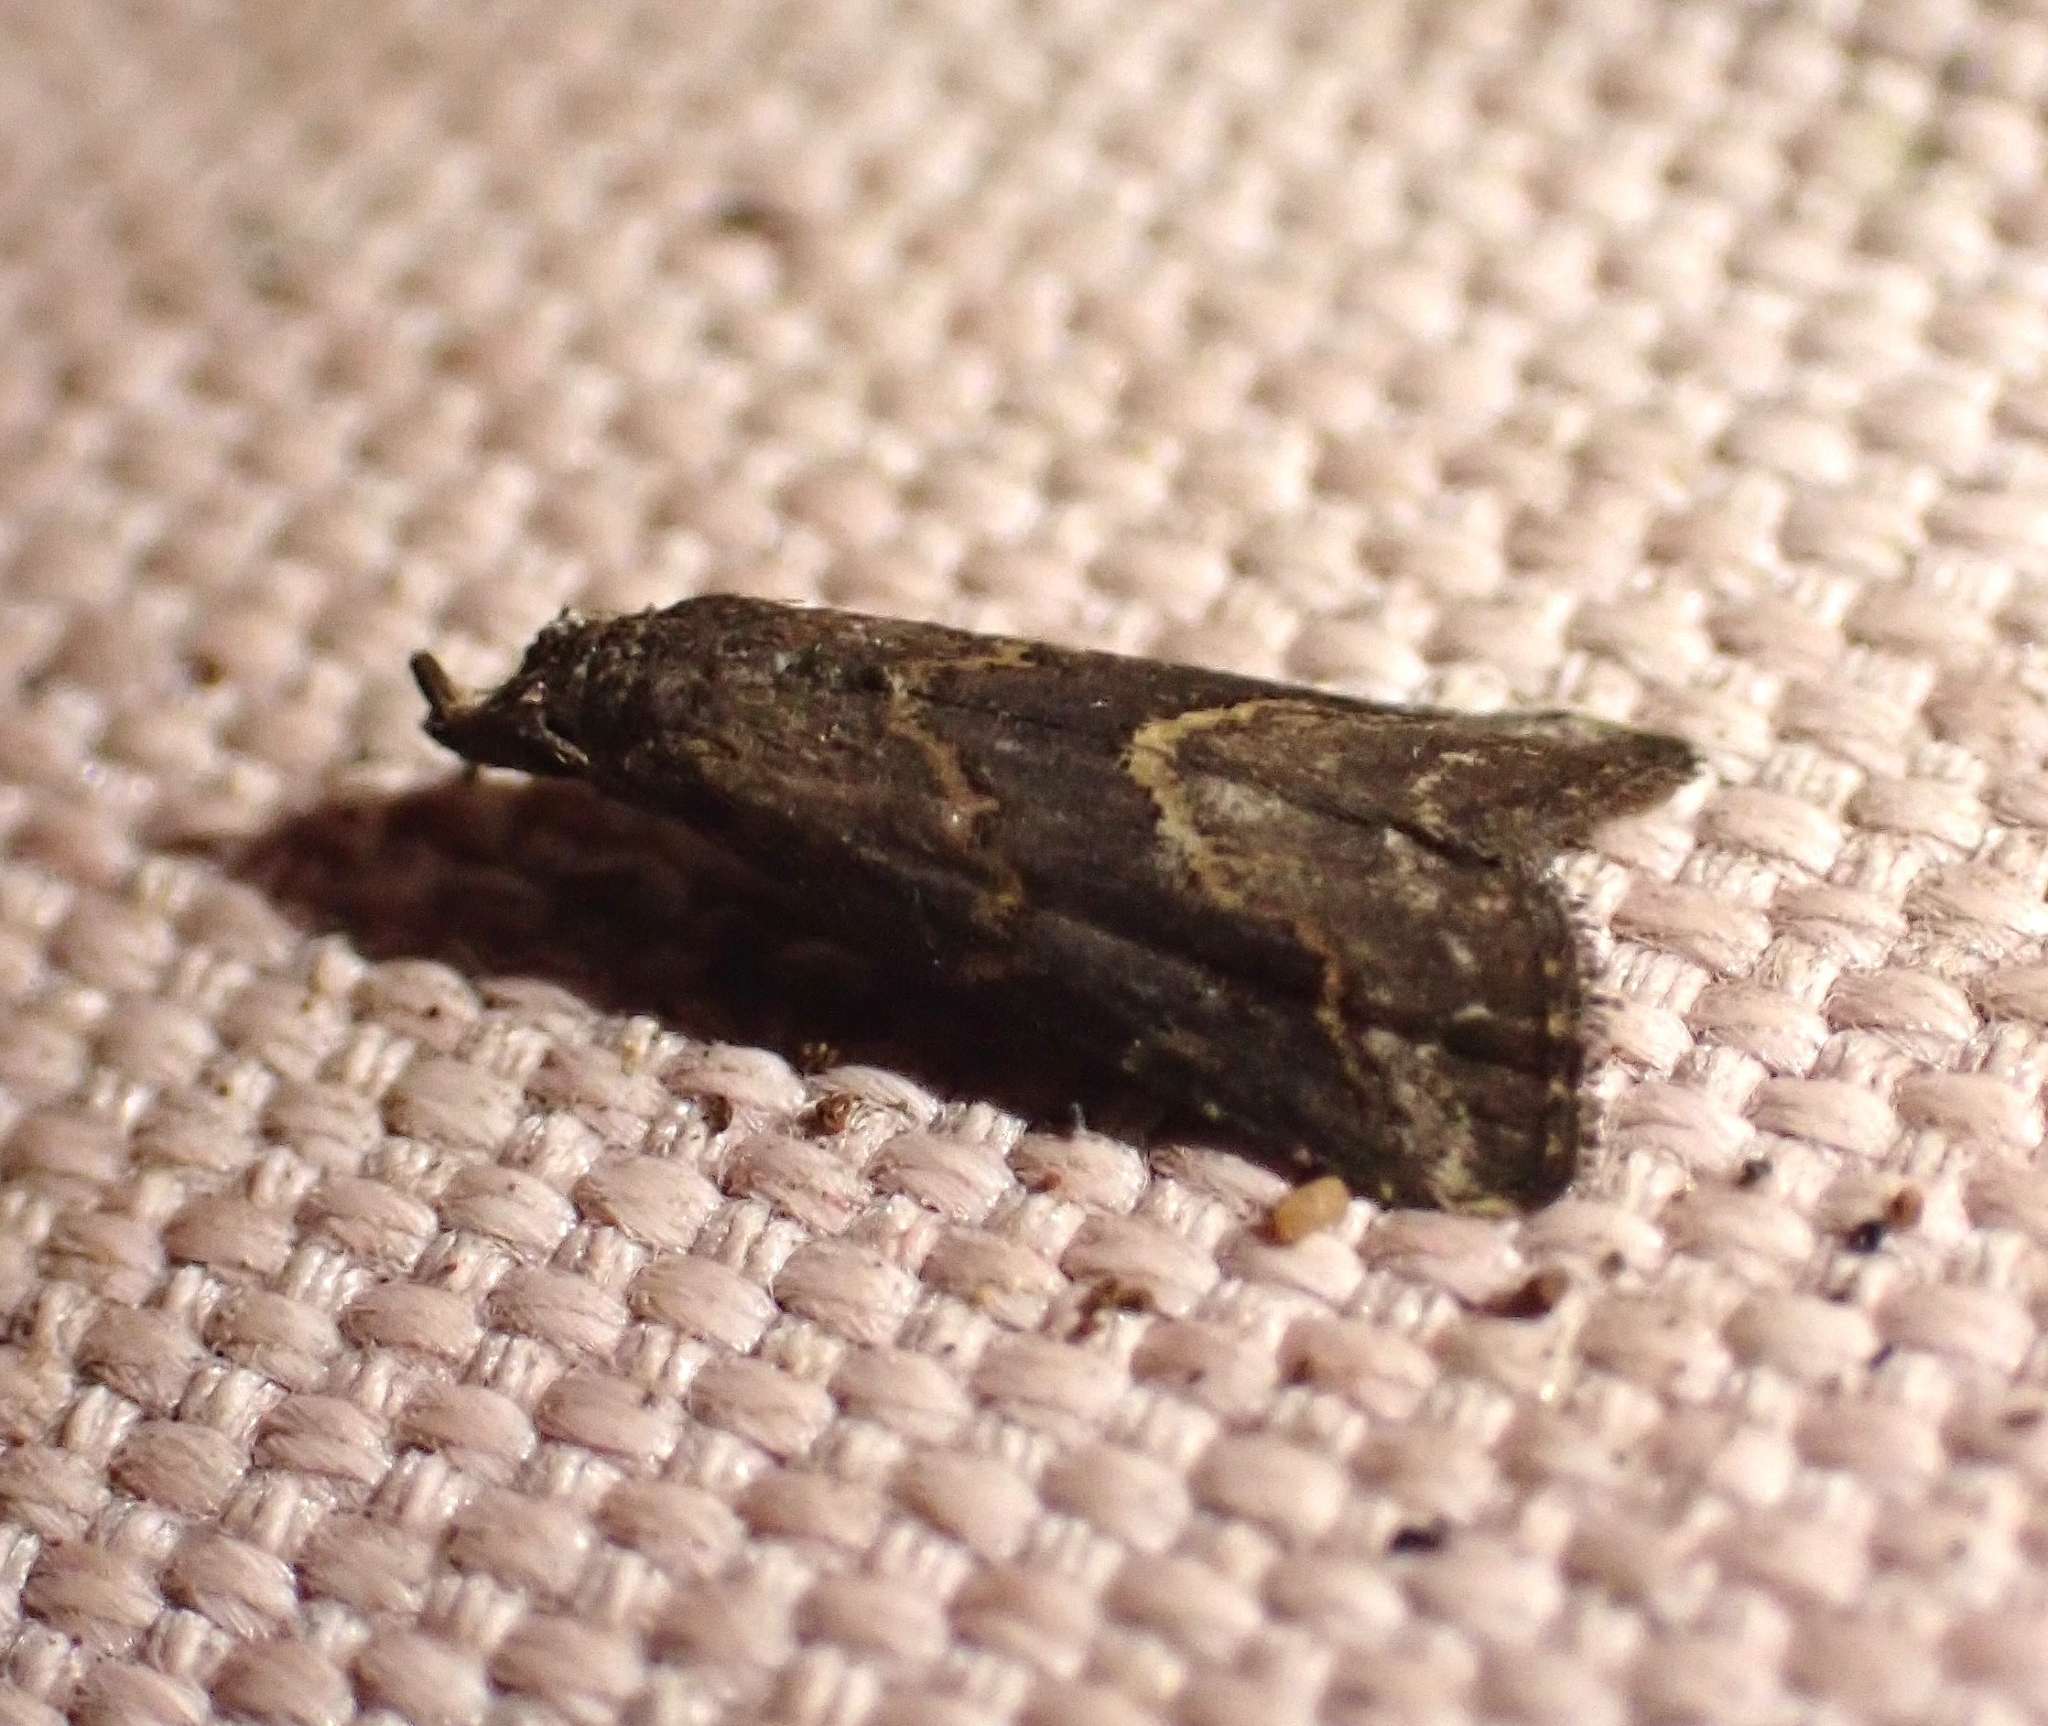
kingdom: Animalia
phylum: Arthropoda
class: Insecta
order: Lepidoptera
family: Erebidae
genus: Schrankia
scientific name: Schrankia costaestrigalis
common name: Pinion-streaked snout
